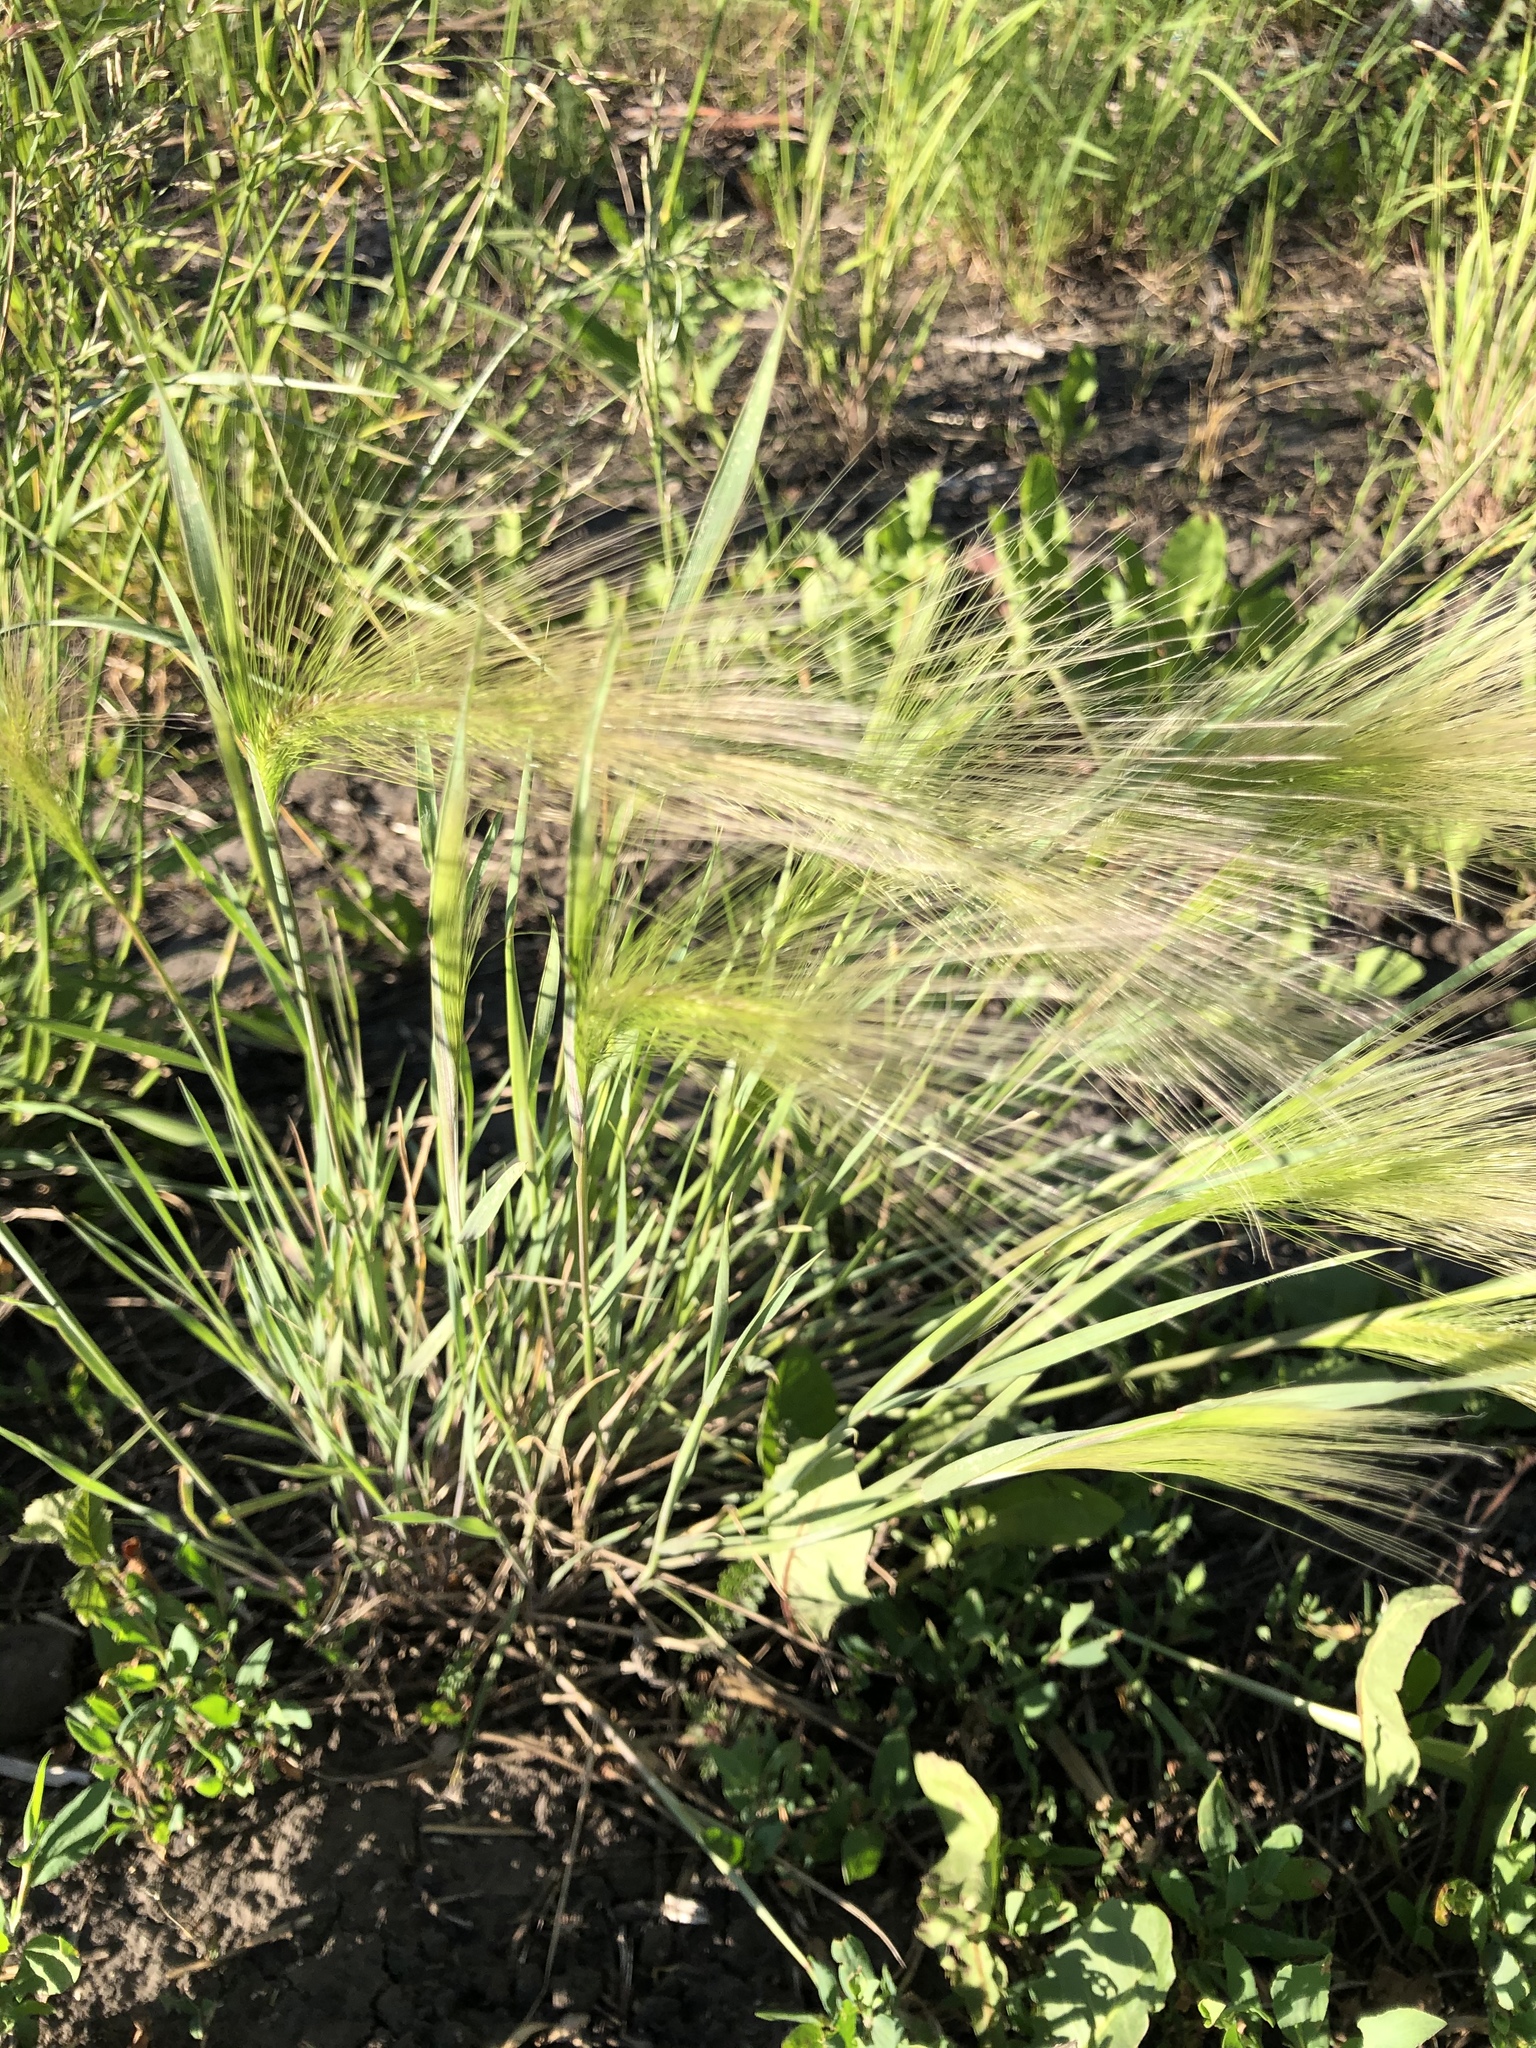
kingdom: Plantae
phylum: Tracheophyta
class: Liliopsida
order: Poales
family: Poaceae
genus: Hordeum
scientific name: Hordeum jubatum
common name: Foxtail barley
